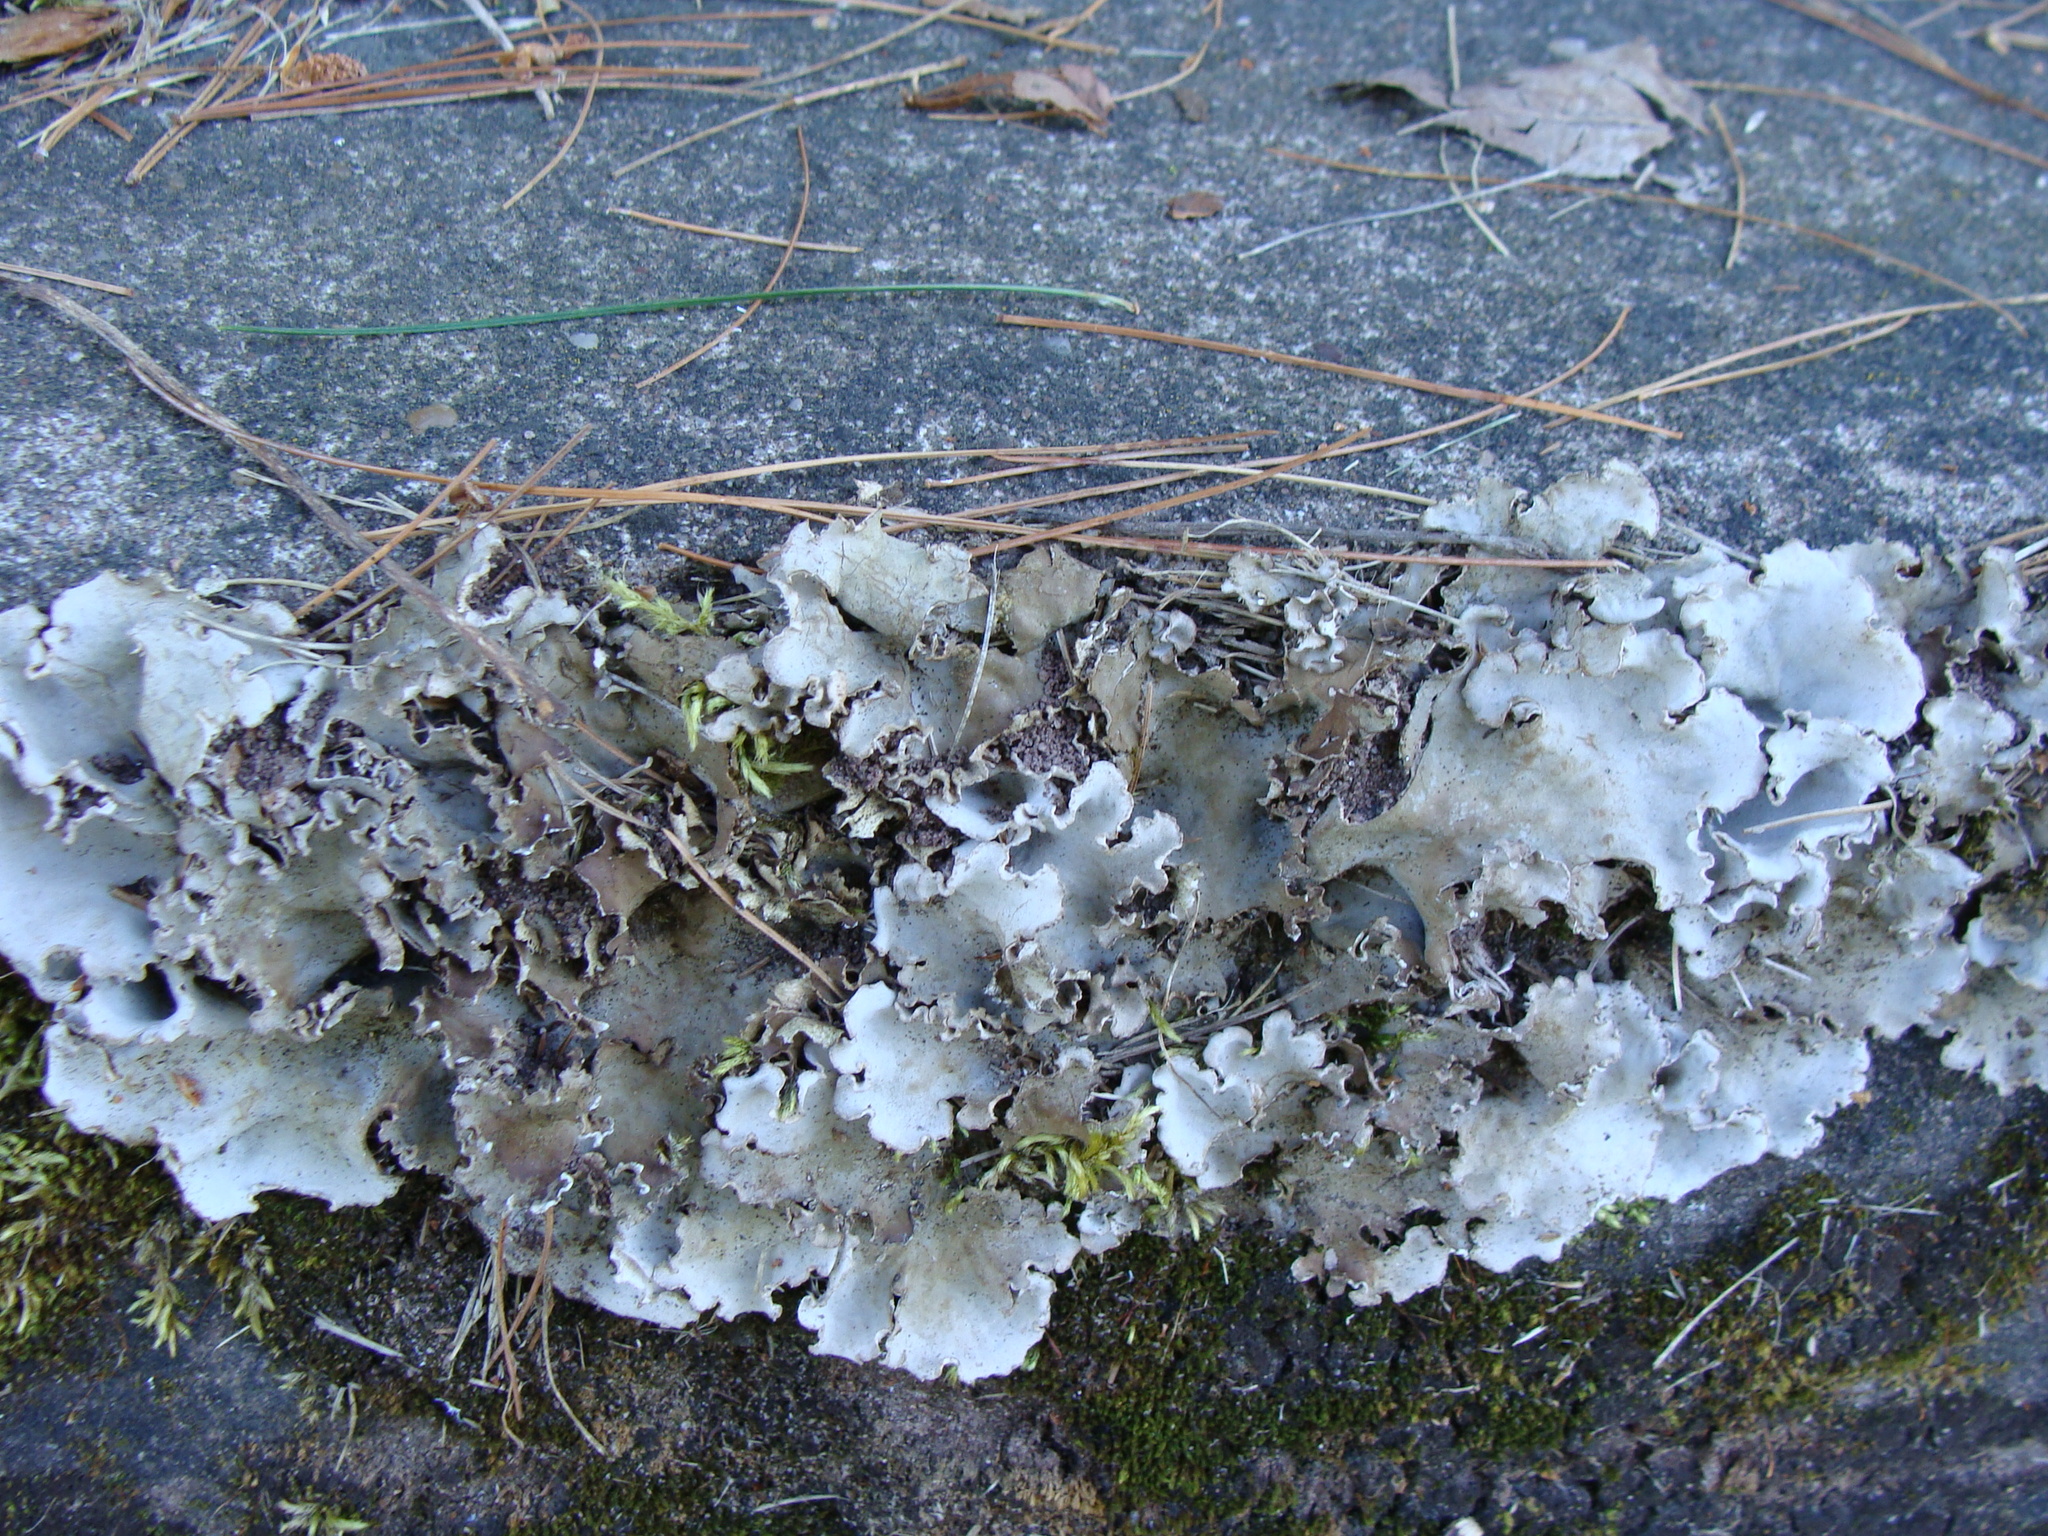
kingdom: Fungi
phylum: Ascomycota
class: Lecanoromycetes
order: Peltigerales
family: Peltigeraceae
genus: Peltigera
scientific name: Peltigera praetextata
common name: Scaly dog-lichen
